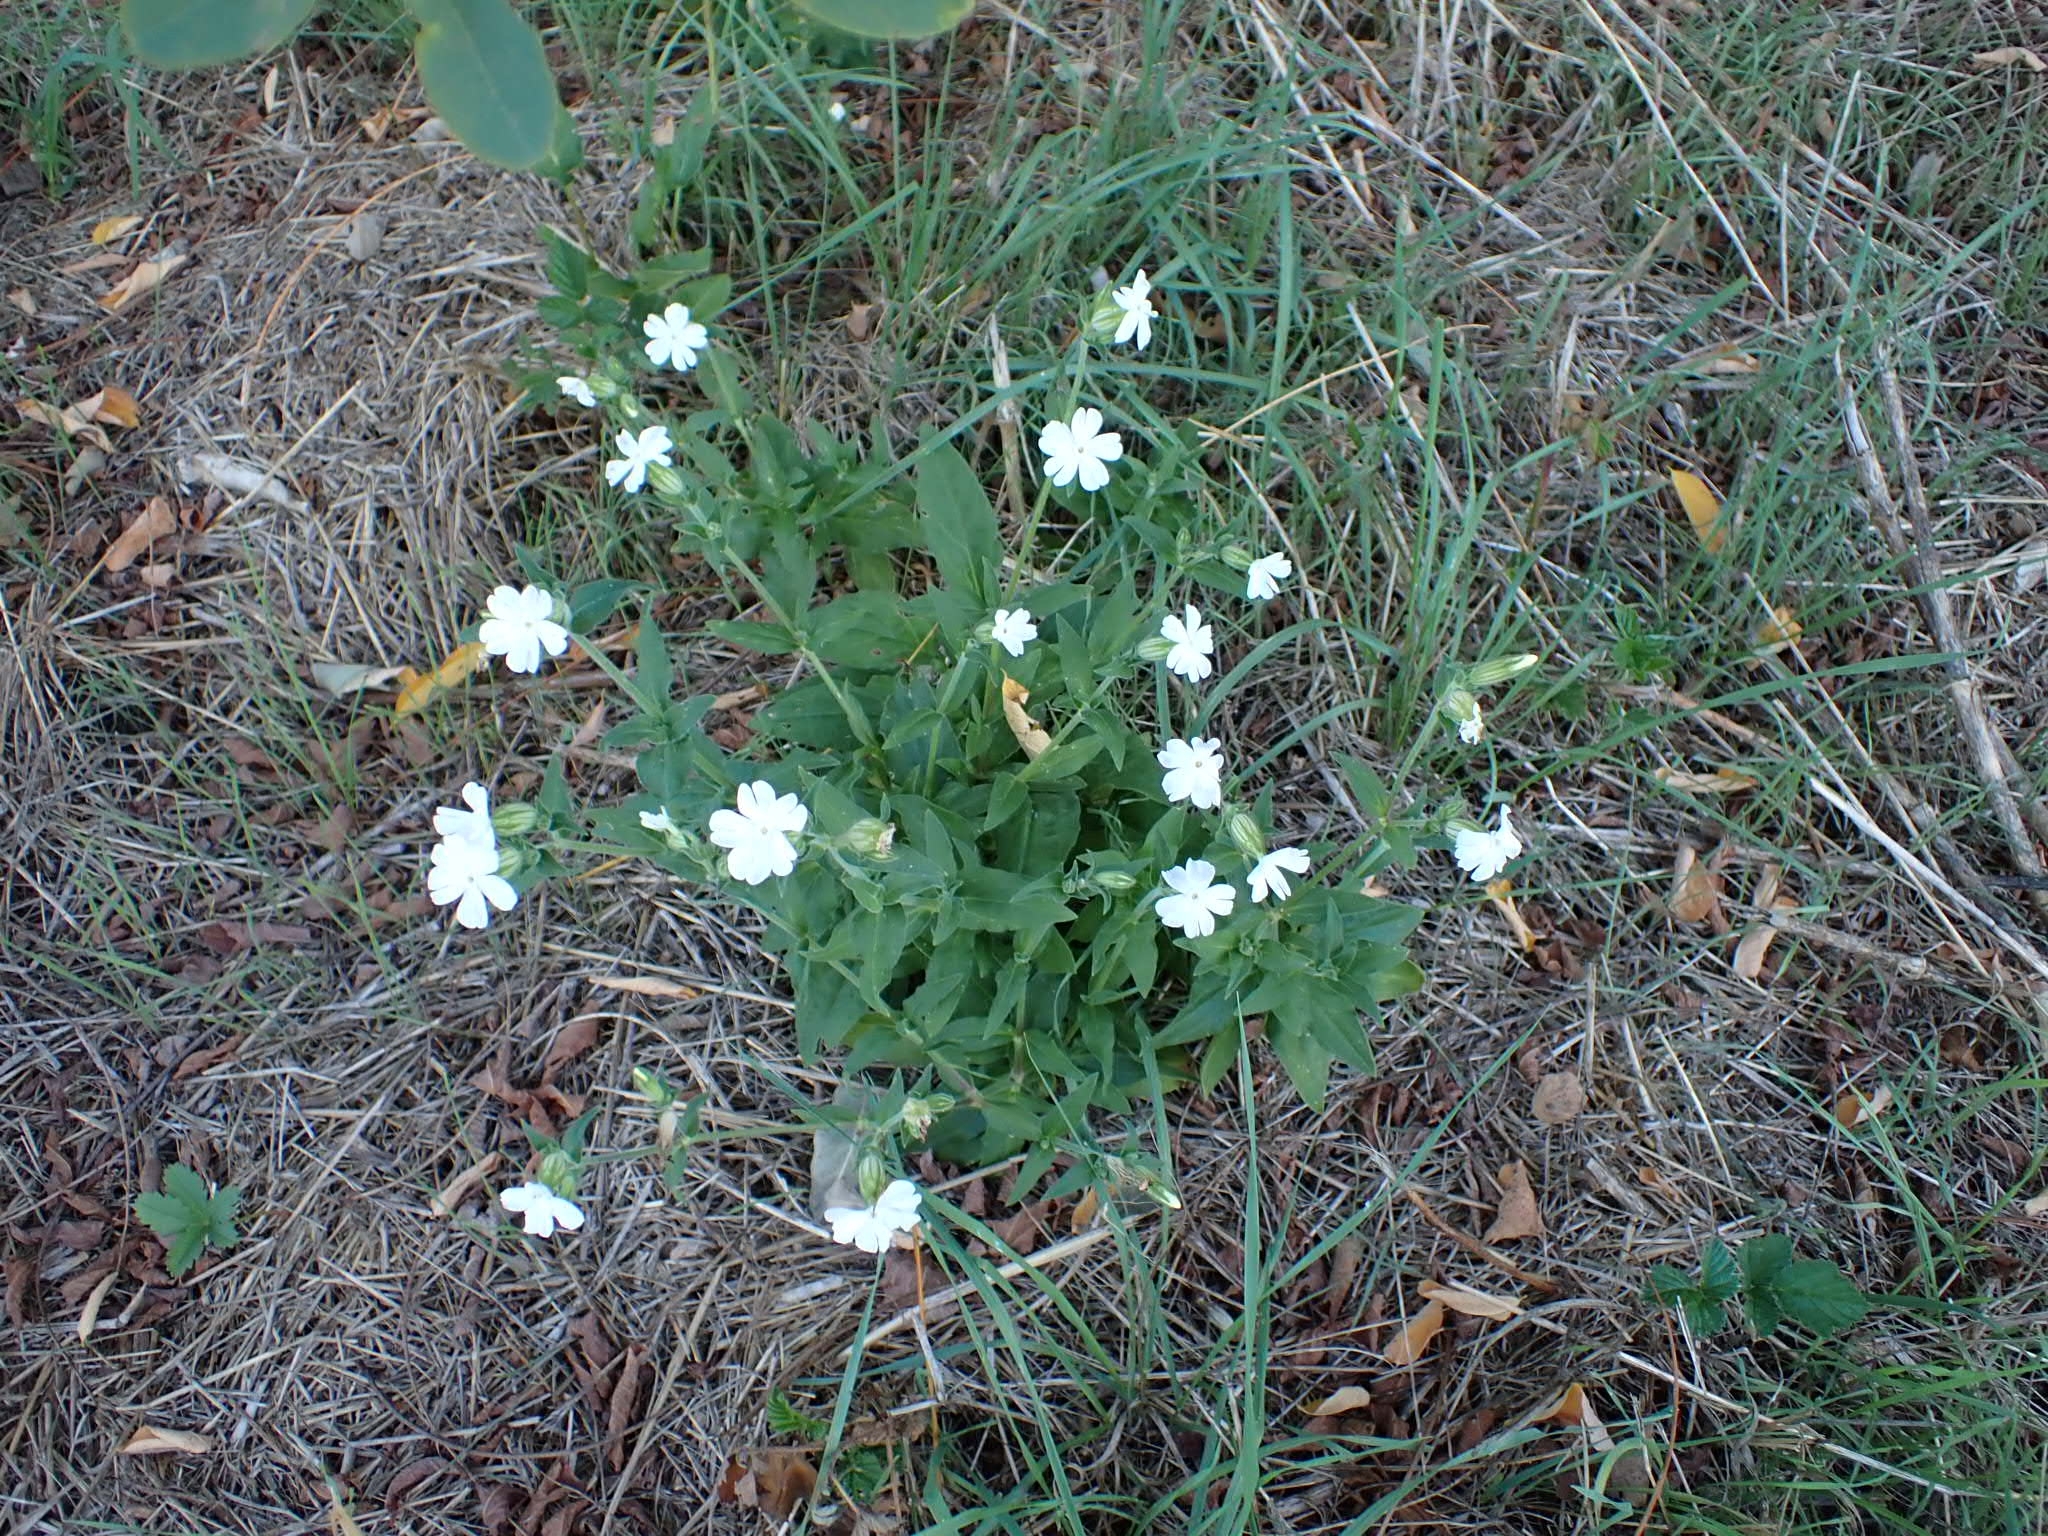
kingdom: Plantae
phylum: Tracheophyta
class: Magnoliopsida
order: Caryophyllales
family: Caryophyllaceae
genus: Silene
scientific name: Silene latifolia
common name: White campion
